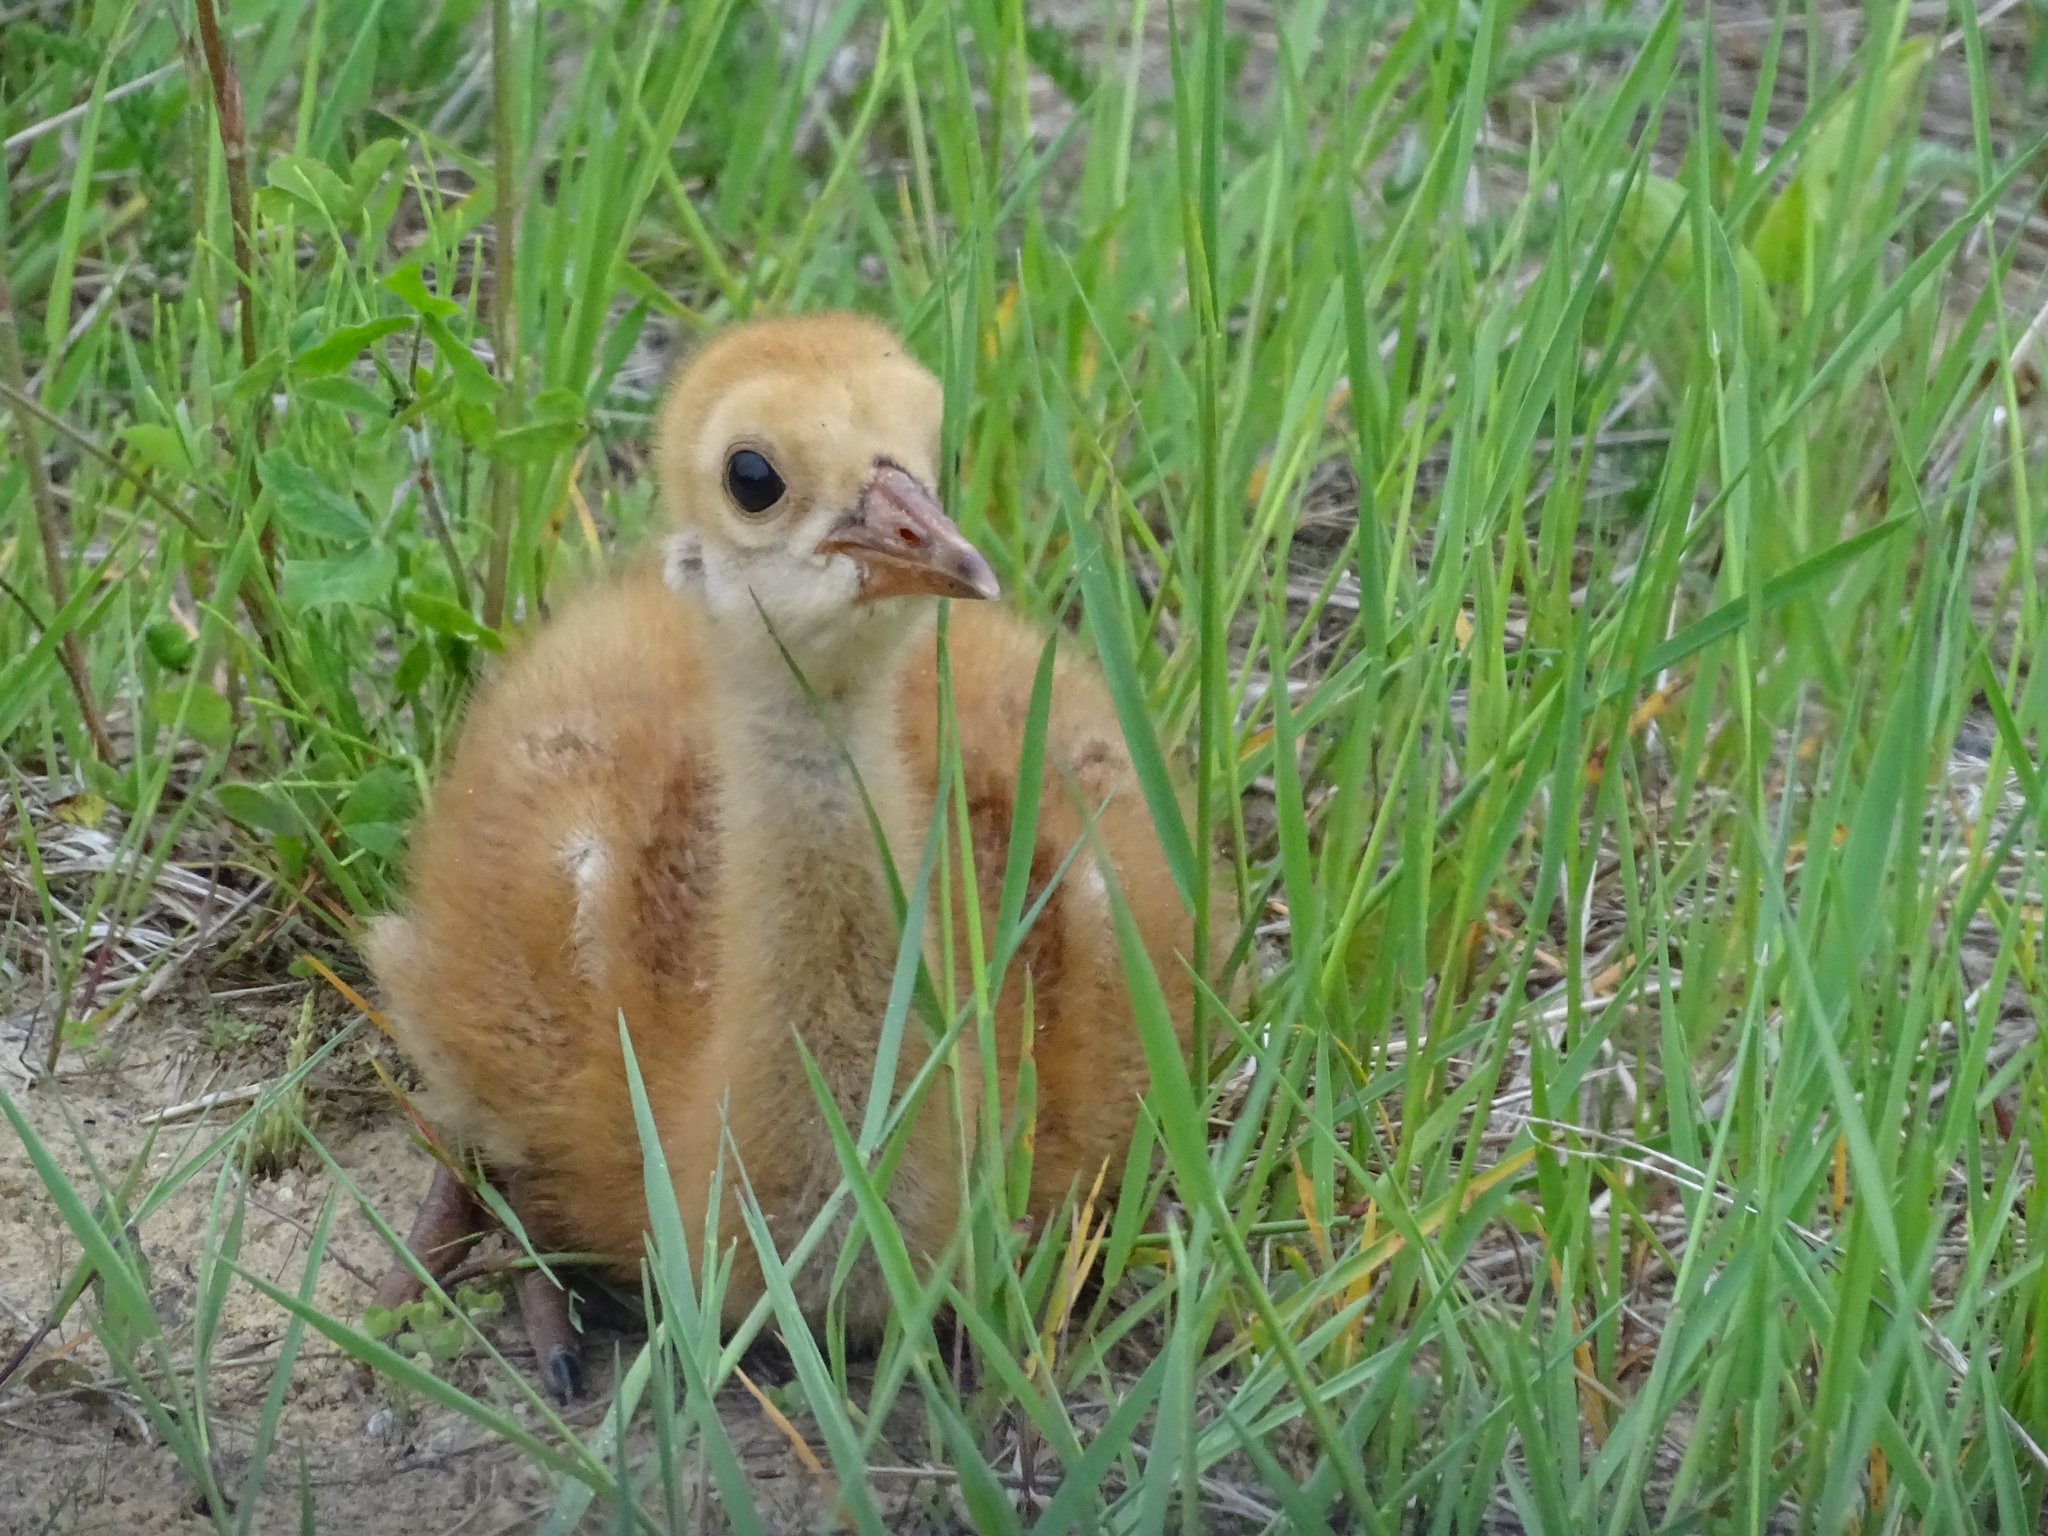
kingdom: Animalia
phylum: Chordata
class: Aves
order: Gruiformes
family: Gruidae
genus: Grus
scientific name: Grus canadensis
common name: Sandhill crane
